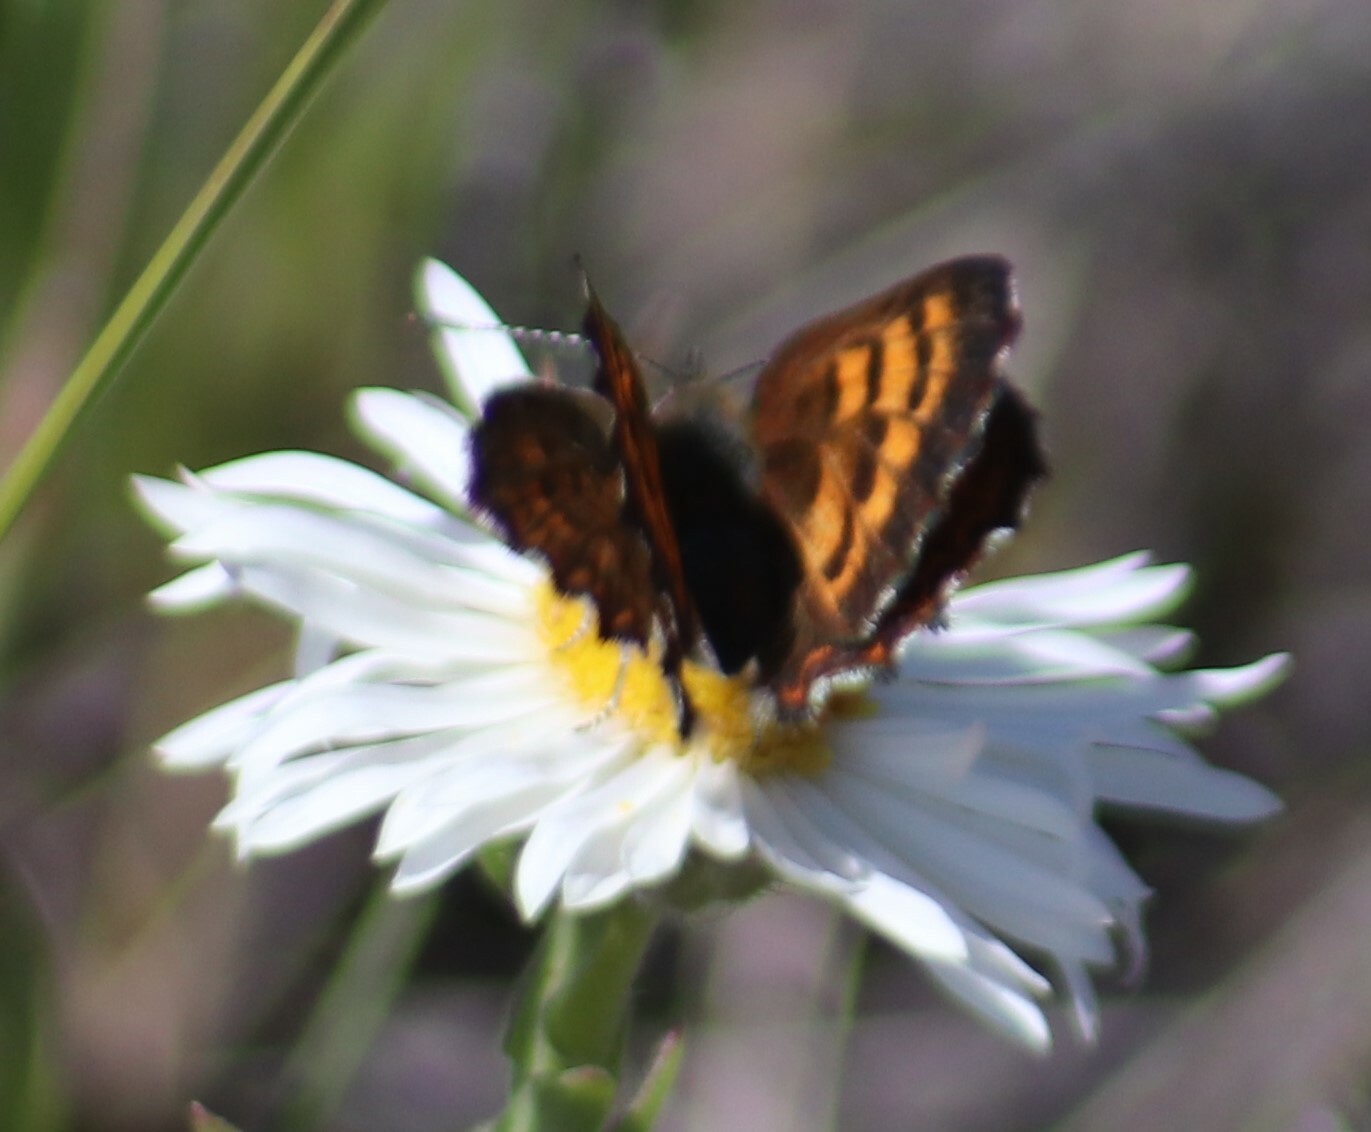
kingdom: Animalia
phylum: Arthropoda
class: Insecta
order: Lepidoptera
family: Lycaenidae
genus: Tharsalea
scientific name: Tharsalea mariposa
